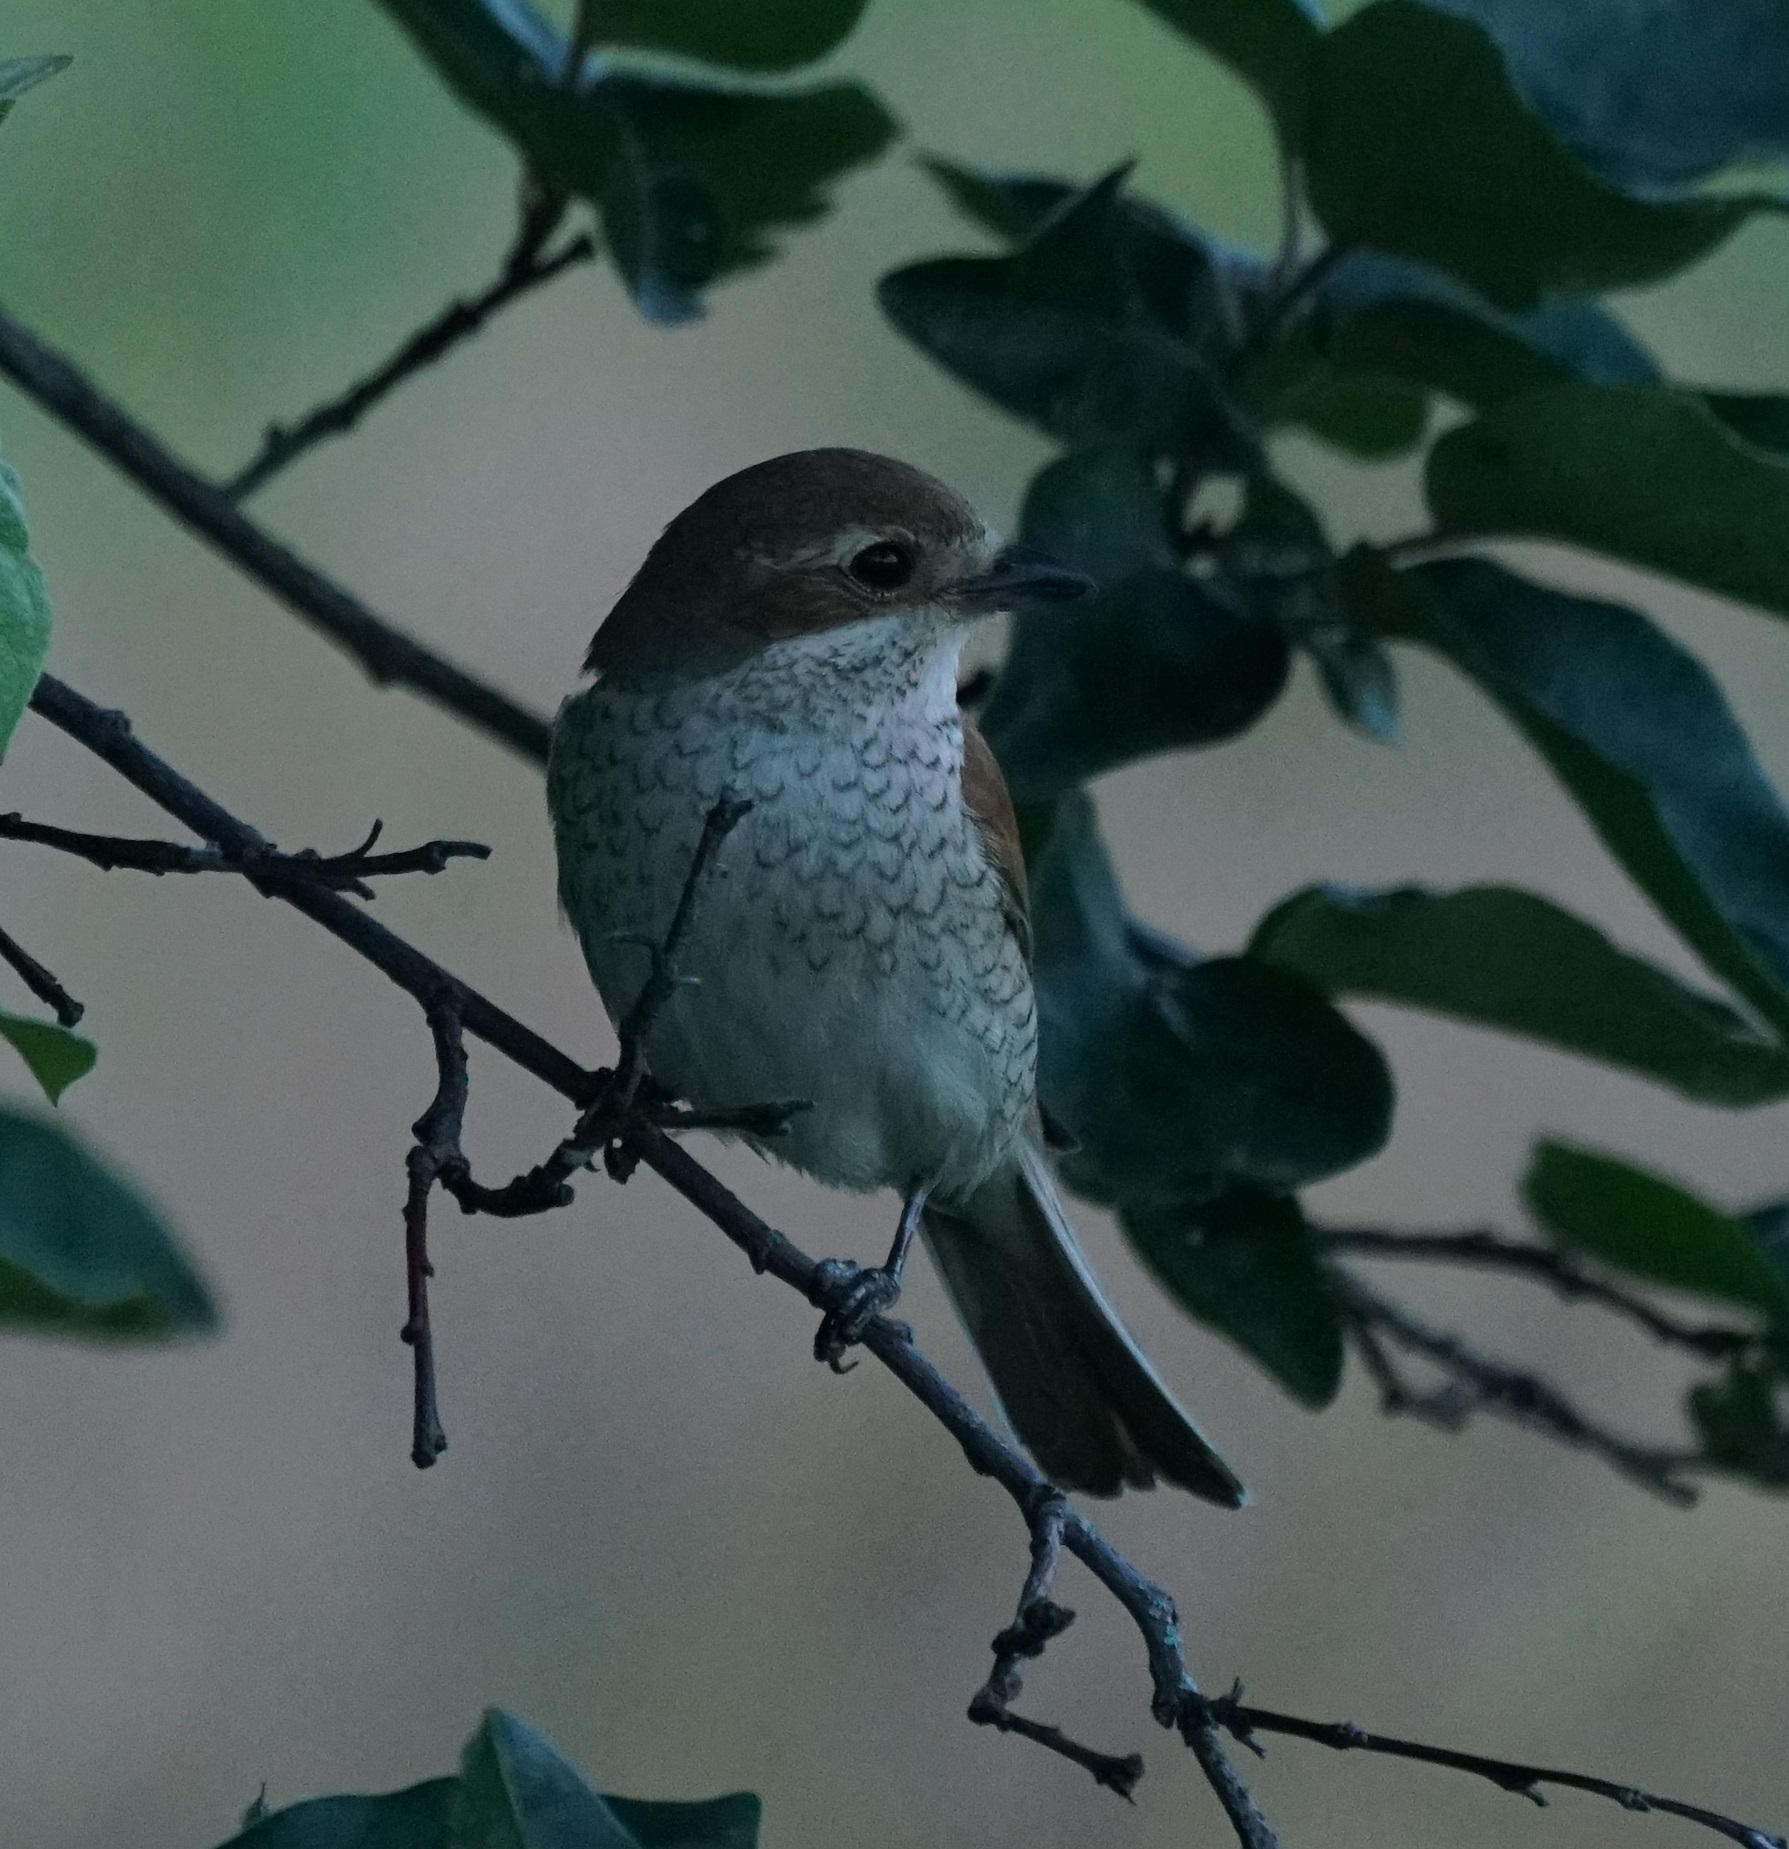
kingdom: Animalia
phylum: Chordata
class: Aves
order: Passeriformes
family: Laniidae
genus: Lanius
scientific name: Lanius collurio
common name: Red-backed shrike
